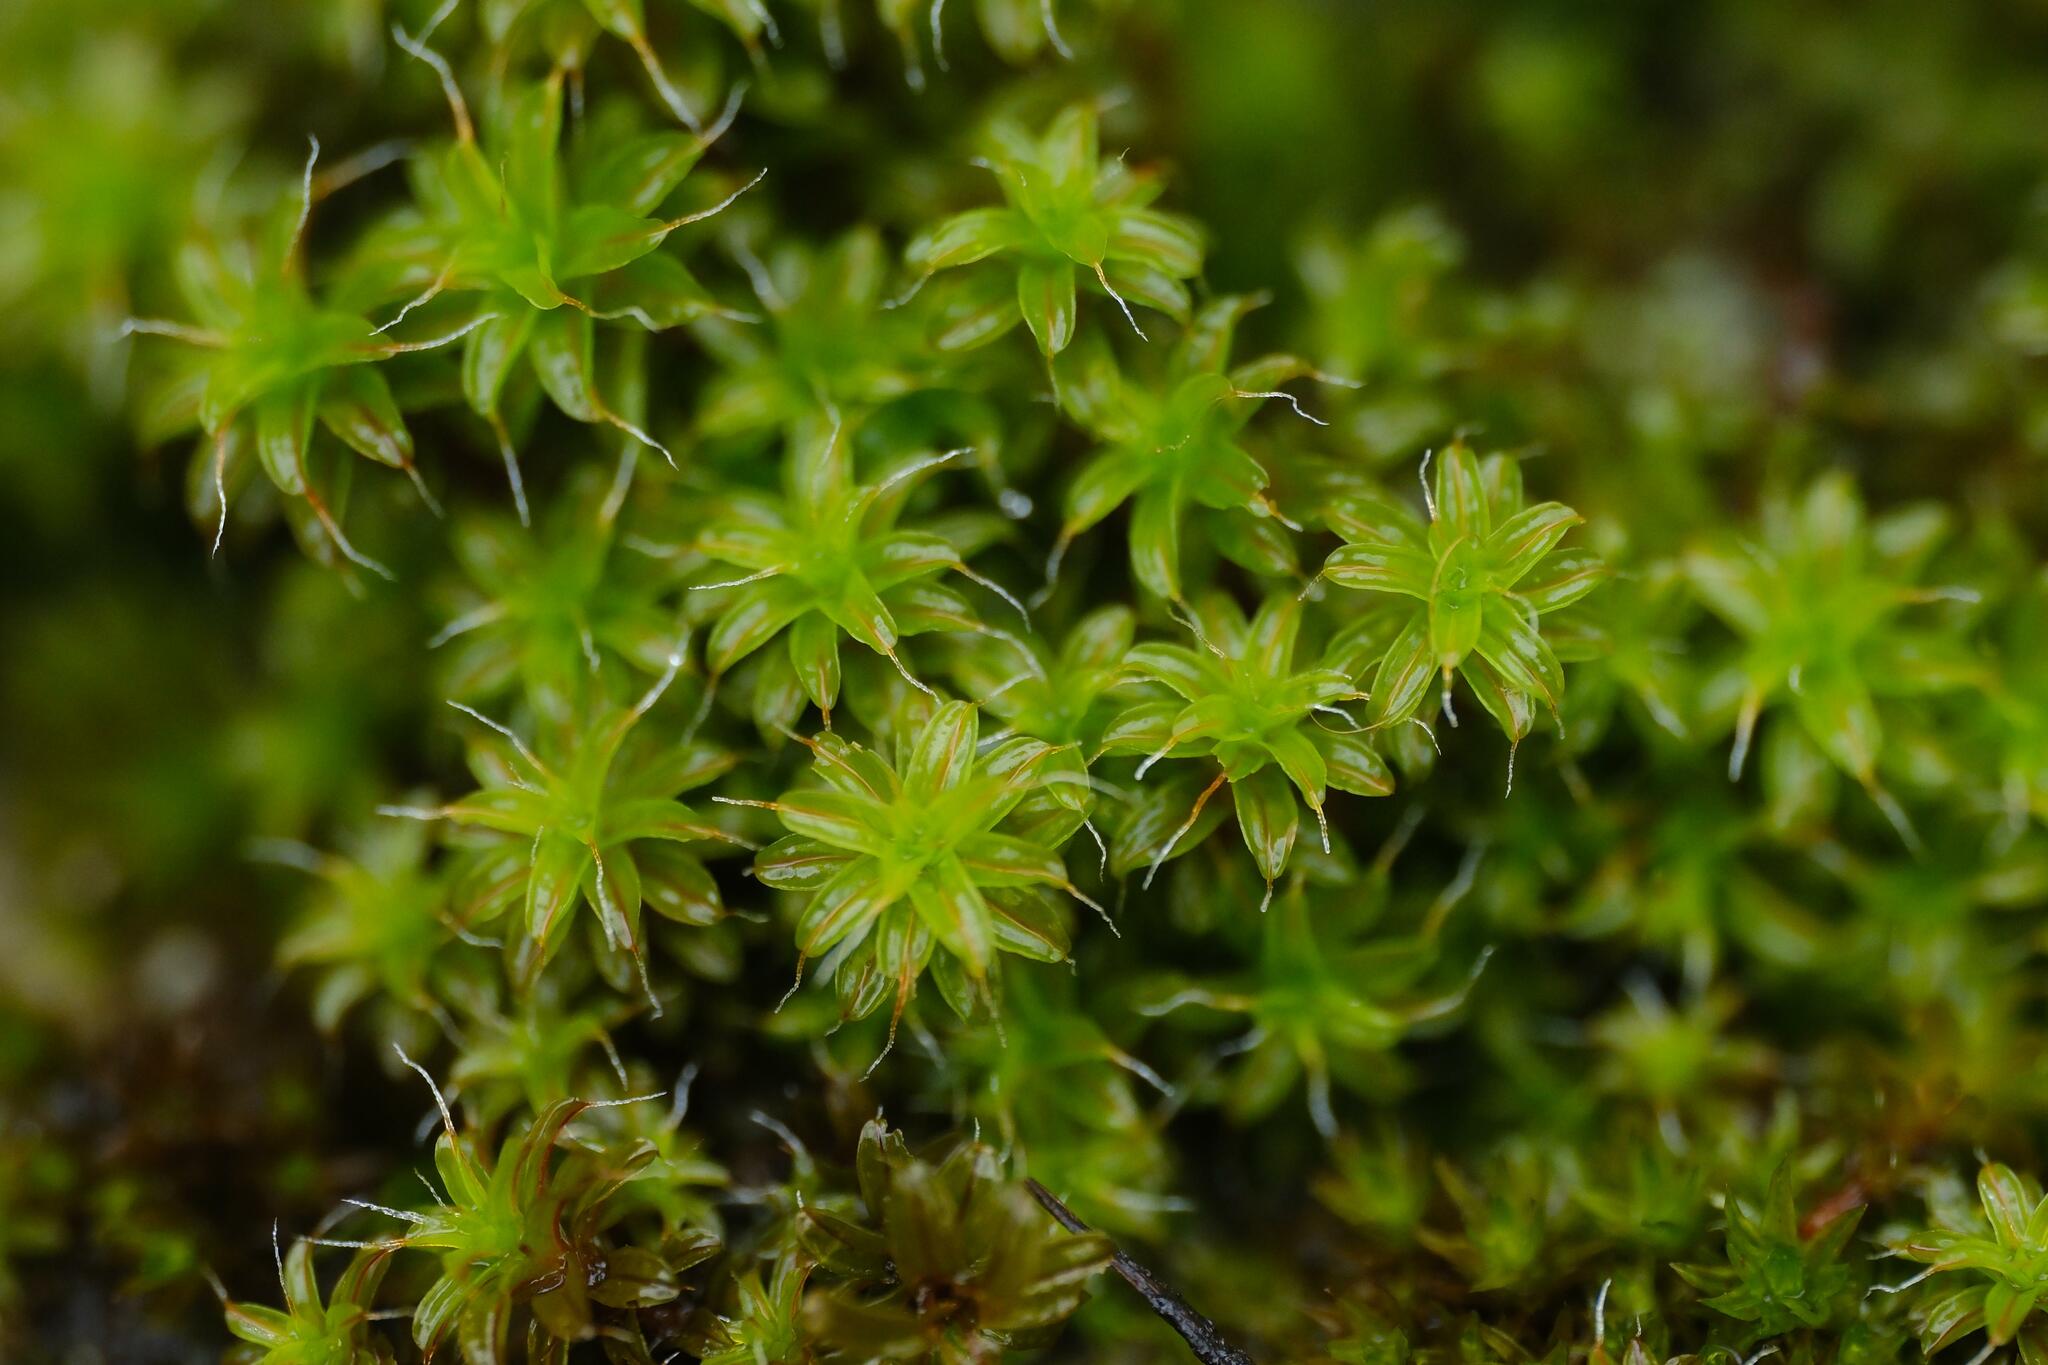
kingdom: Plantae
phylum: Bryophyta
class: Bryopsida
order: Pottiales
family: Pottiaceae
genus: Syntrichia
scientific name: Syntrichia ruralis
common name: Sidewalk screw moss
